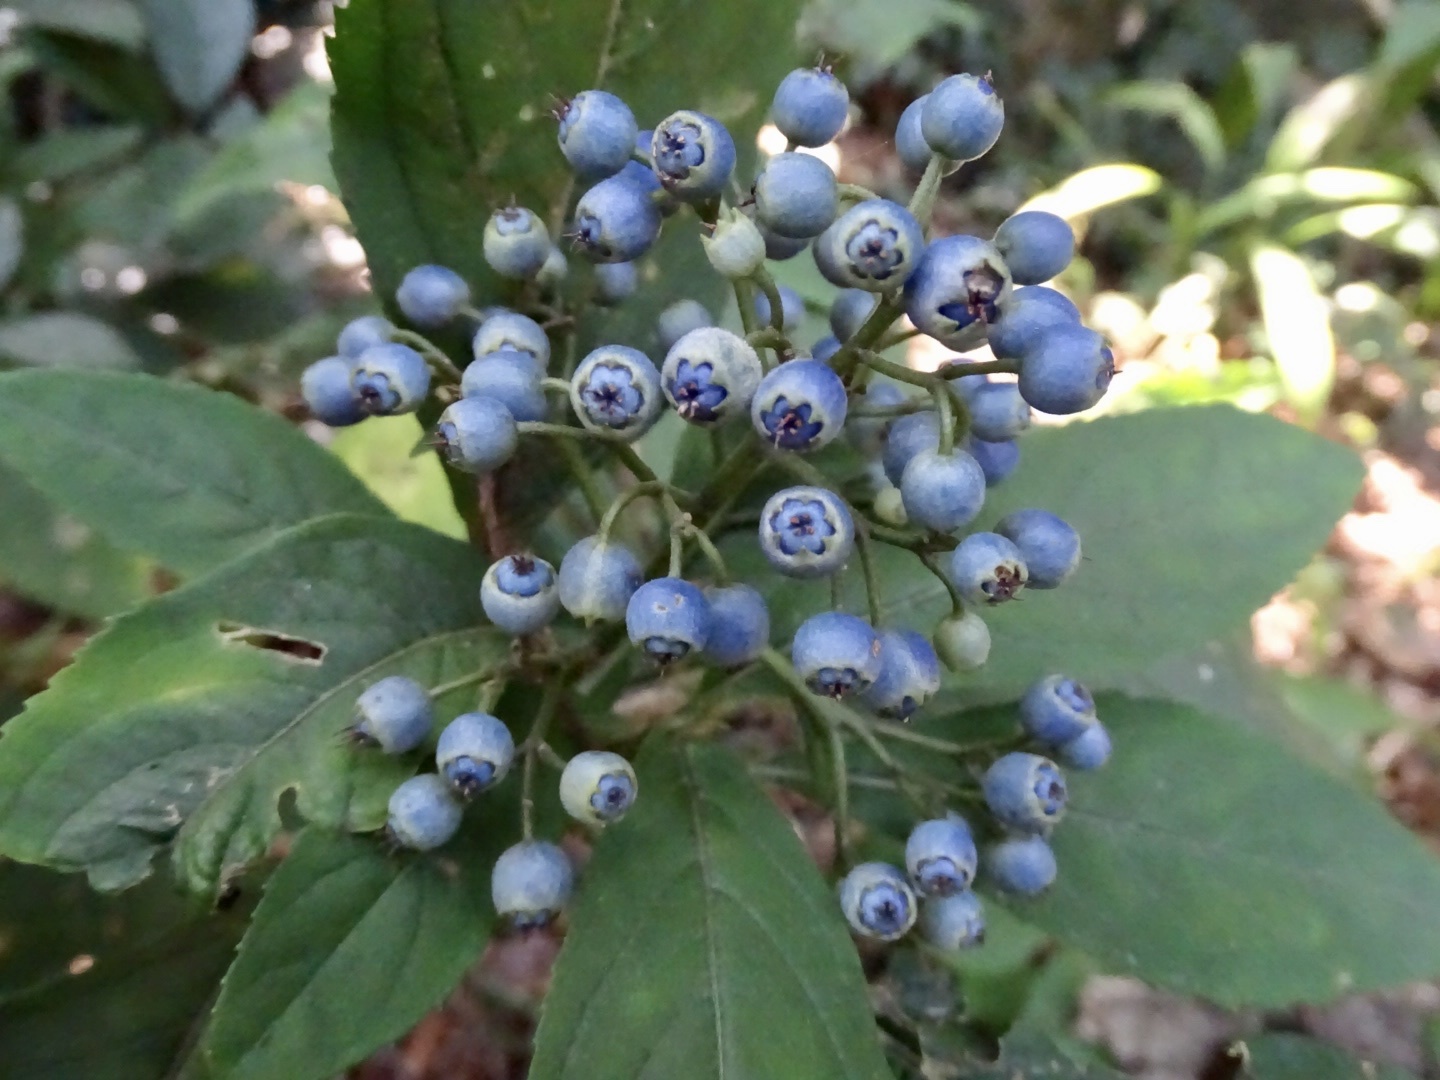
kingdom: Plantae
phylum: Tracheophyta
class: Magnoliopsida
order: Cornales
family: Hydrangeaceae
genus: Hydrangea
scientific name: Hydrangea febrifuga
